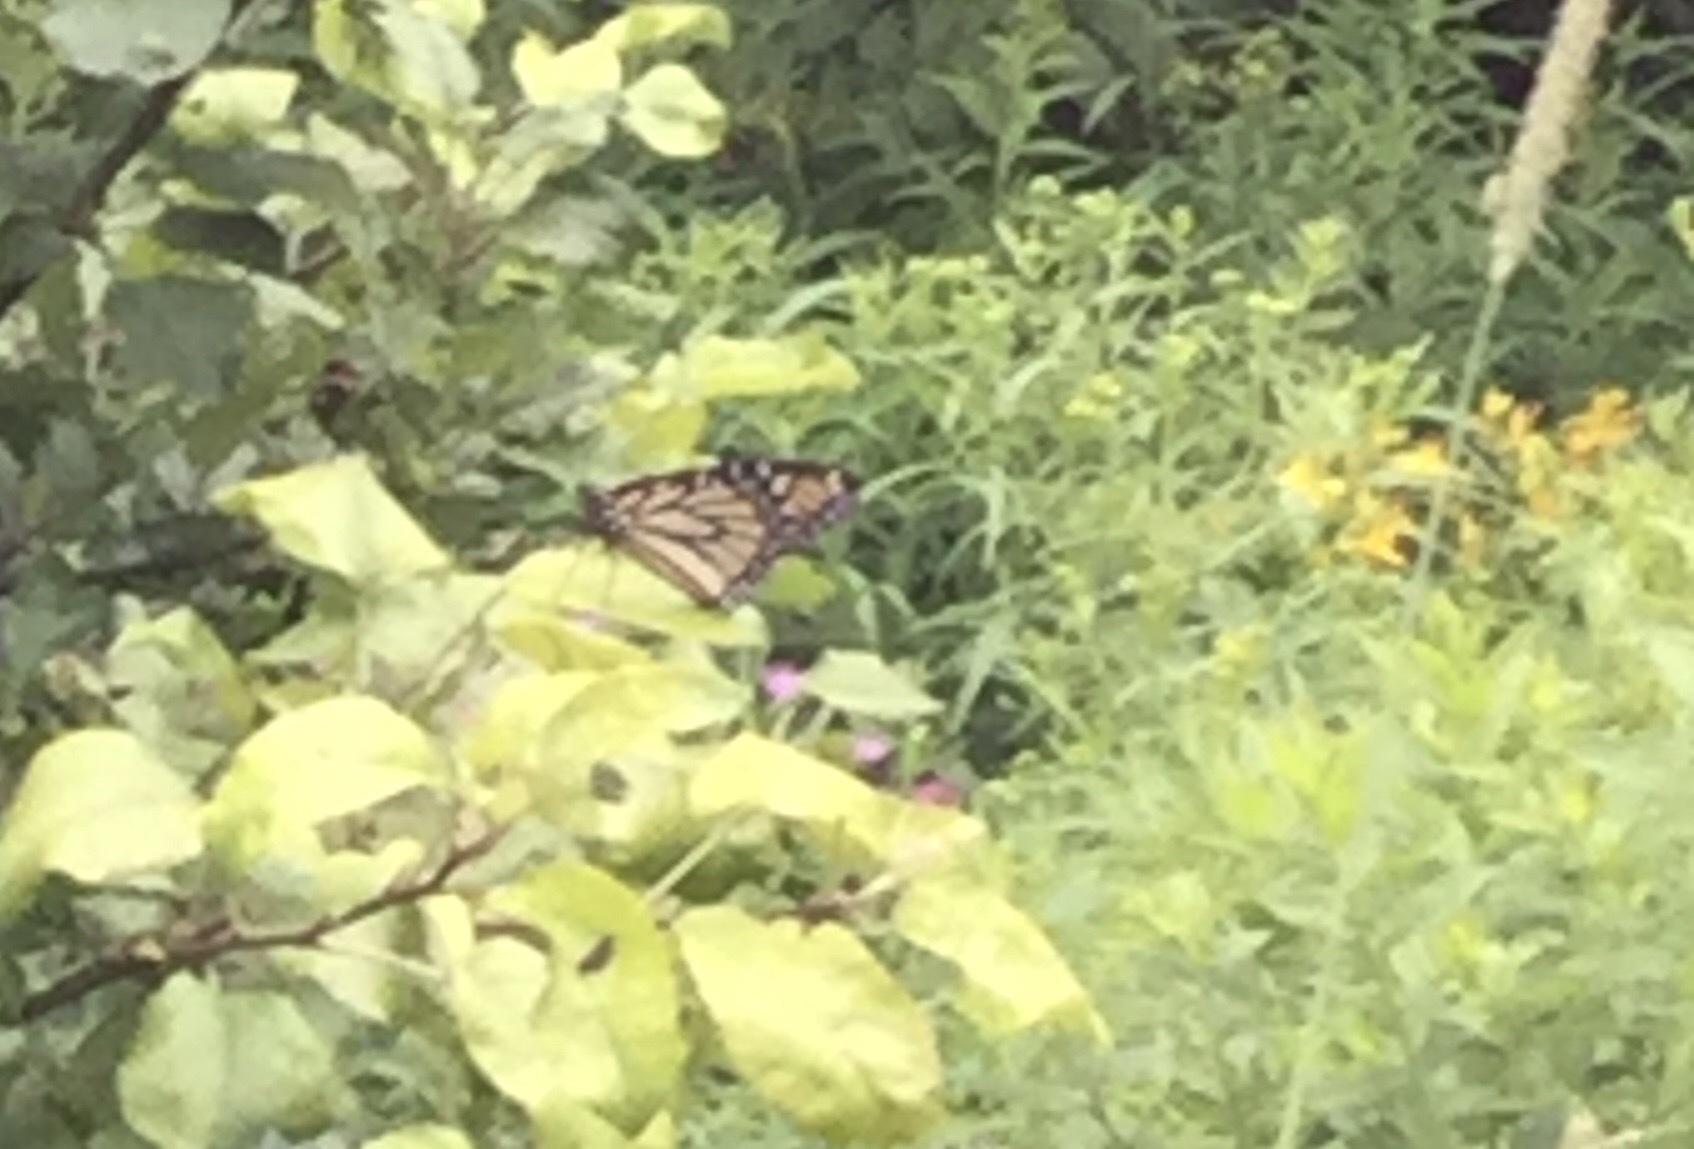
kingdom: Animalia
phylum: Arthropoda
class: Insecta
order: Lepidoptera
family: Nymphalidae
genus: Danaus
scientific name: Danaus plexippus
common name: Monarch
